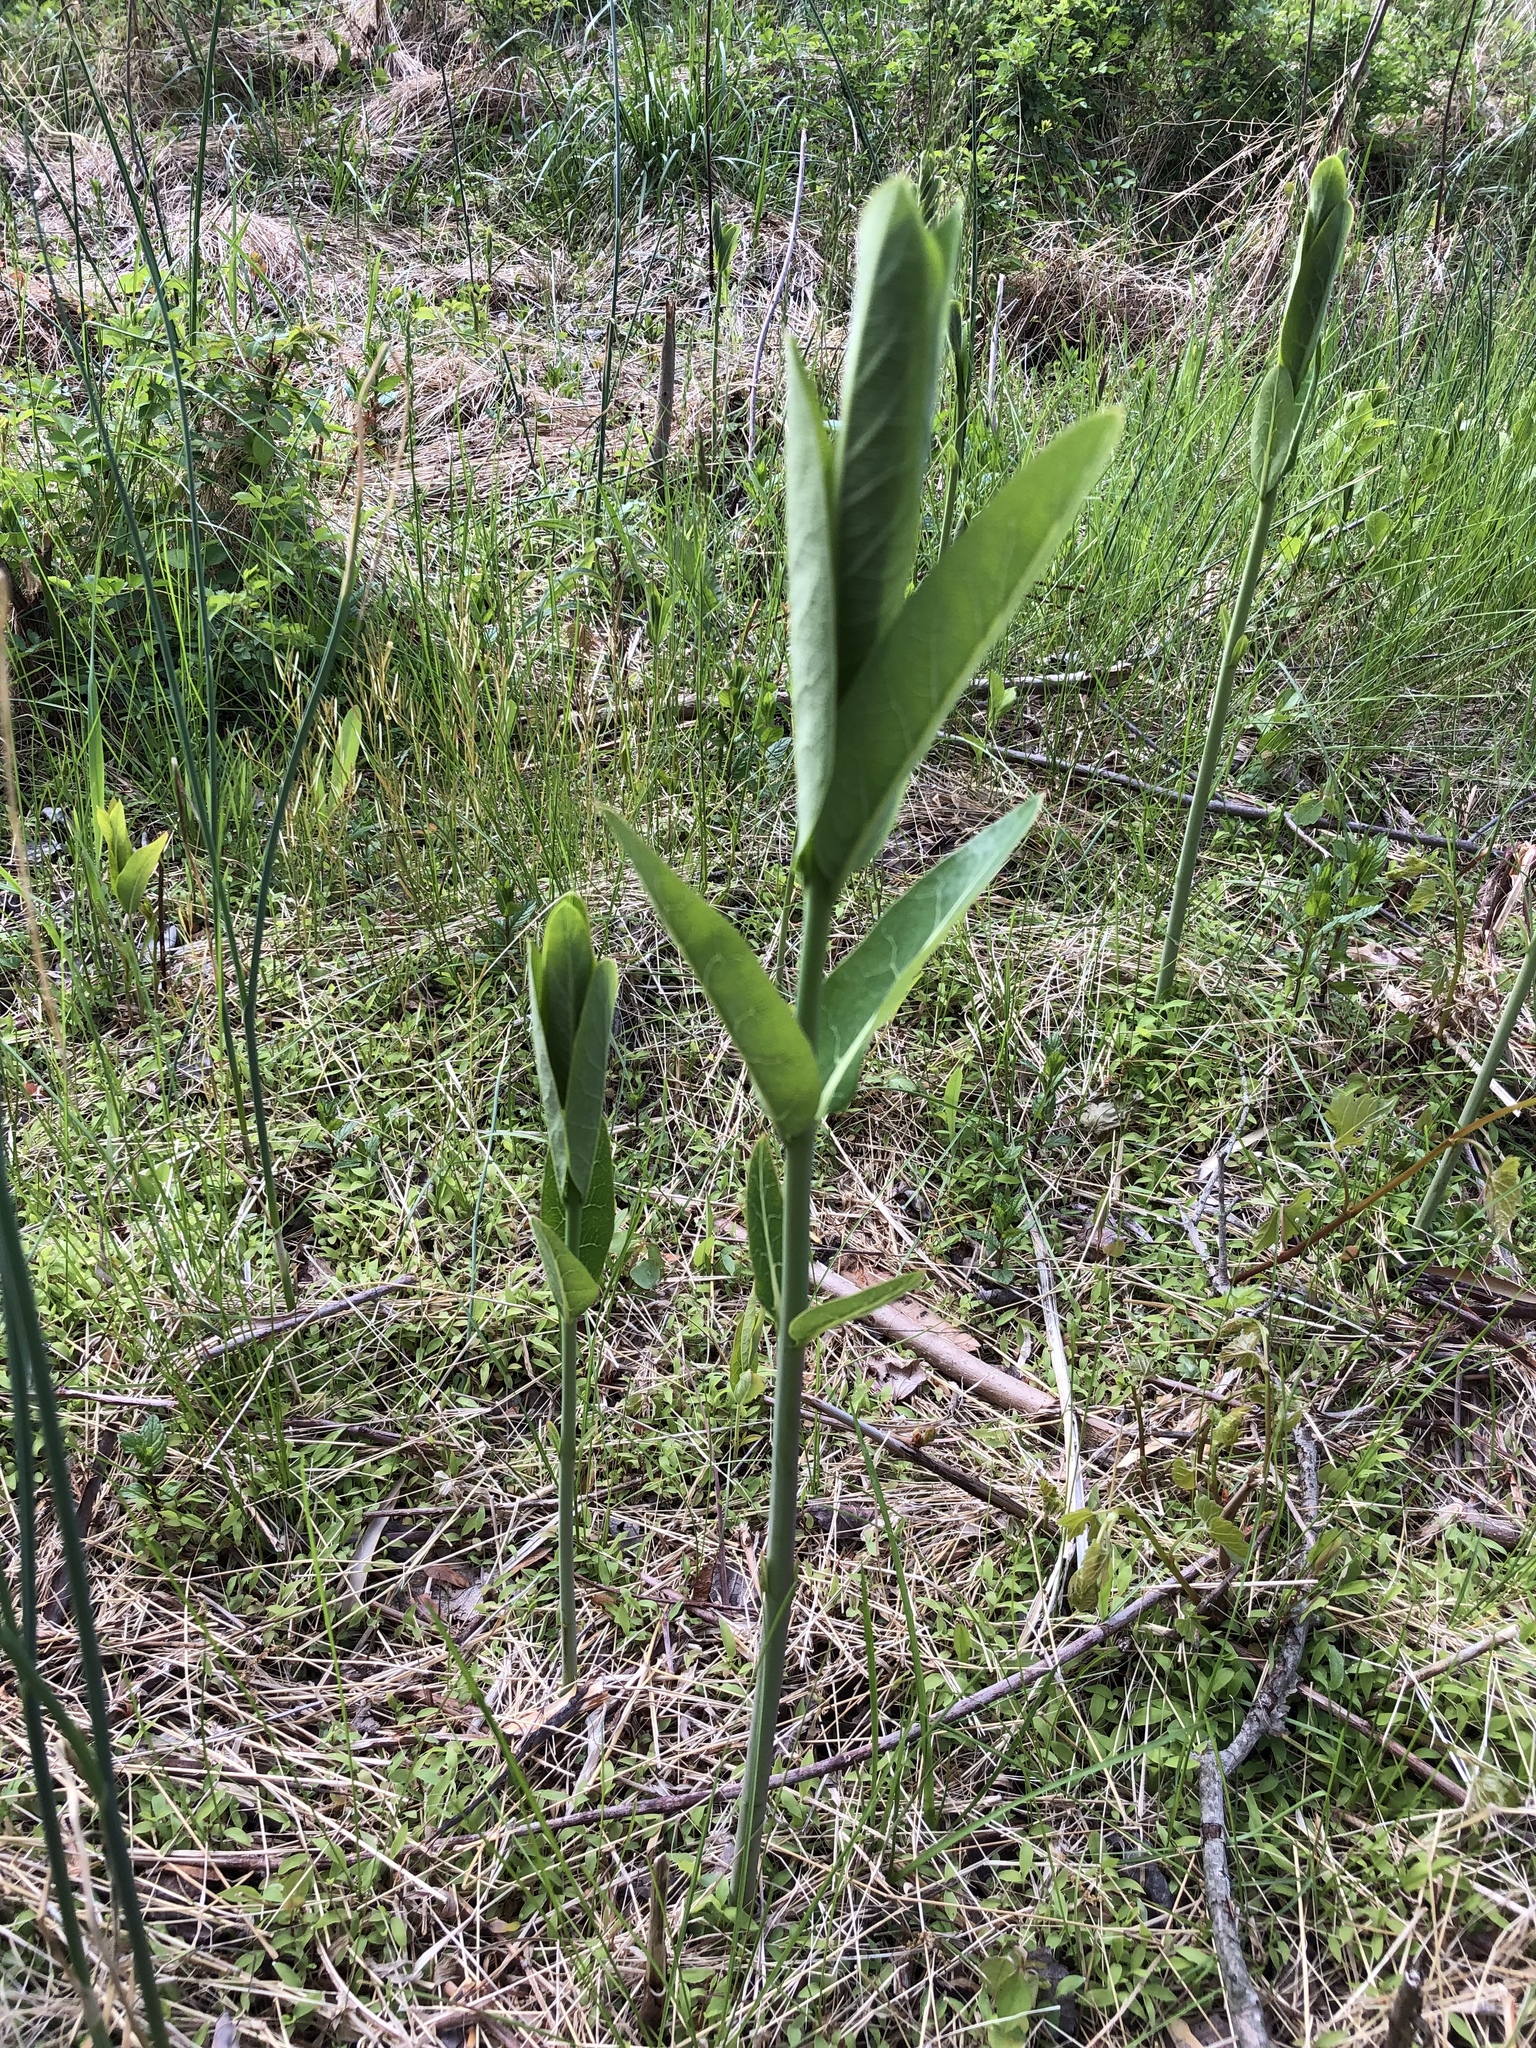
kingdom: Plantae
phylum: Tracheophyta
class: Magnoliopsida
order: Gentianales
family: Apocynaceae
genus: Apocynum
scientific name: Apocynum cannabinum
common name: Hemp dogbane
